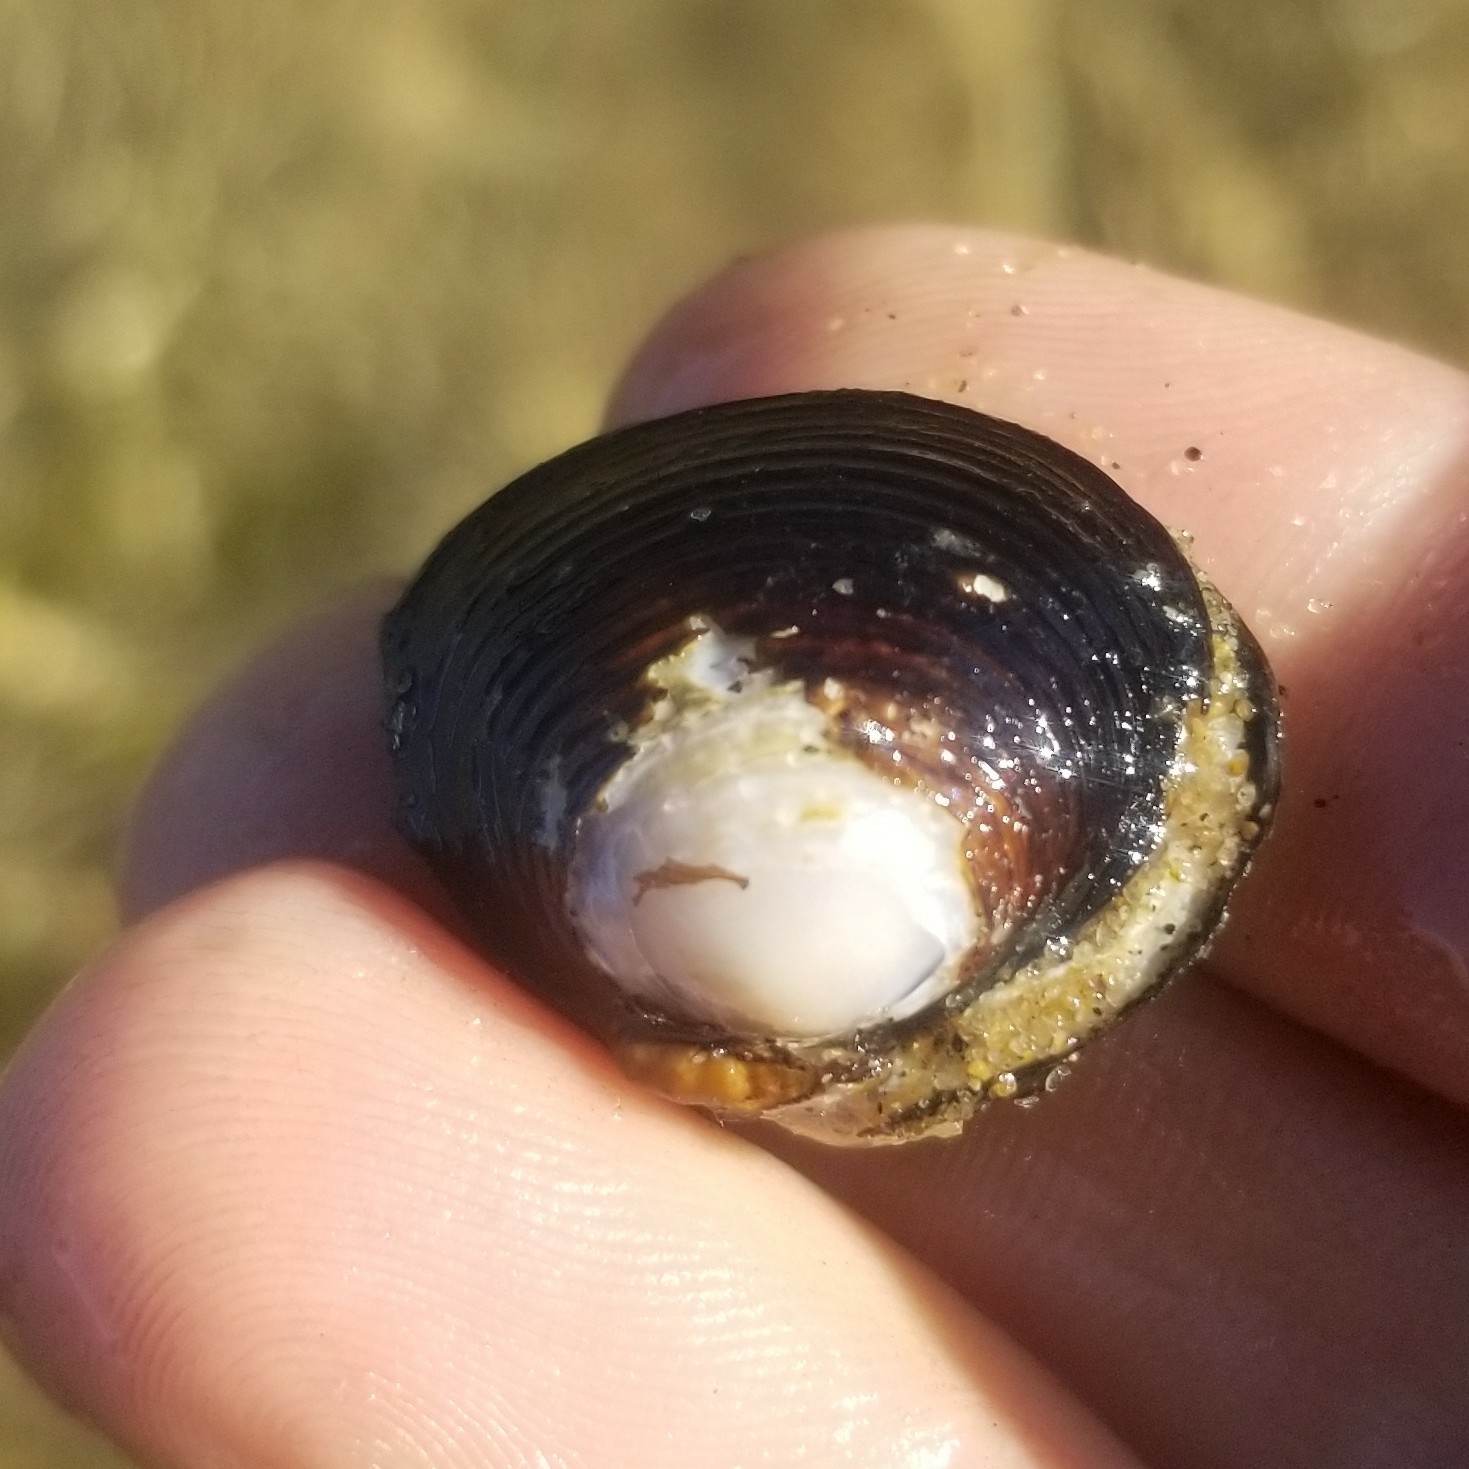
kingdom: Animalia
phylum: Mollusca
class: Bivalvia
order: Venerida
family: Cyrenidae
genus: Corbicula
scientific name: Corbicula fluminea
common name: Asian clam
